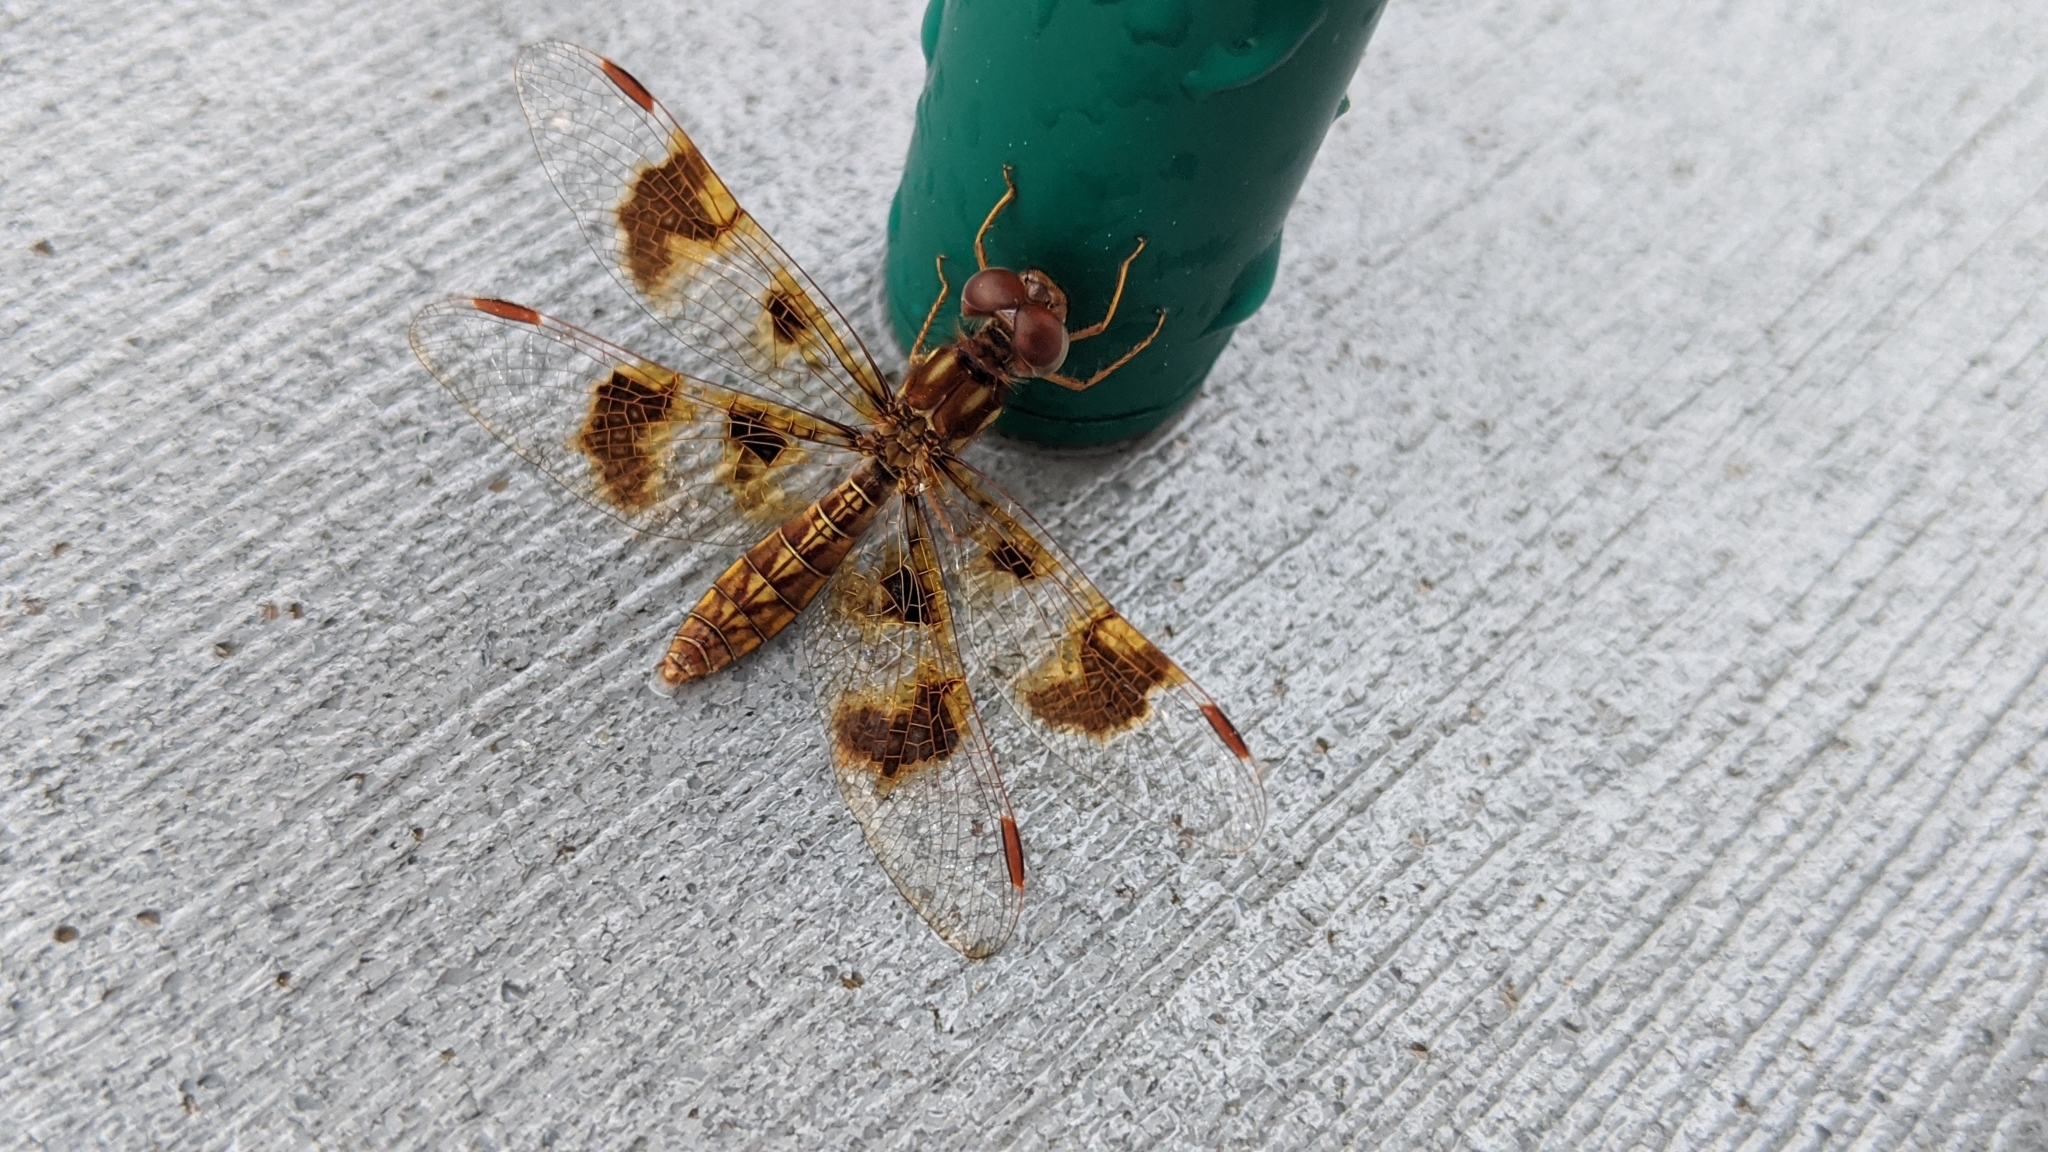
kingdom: Animalia
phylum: Arthropoda
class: Insecta
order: Odonata
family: Libellulidae
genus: Perithemis
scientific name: Perithemis tenera
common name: Eastern amberwing
